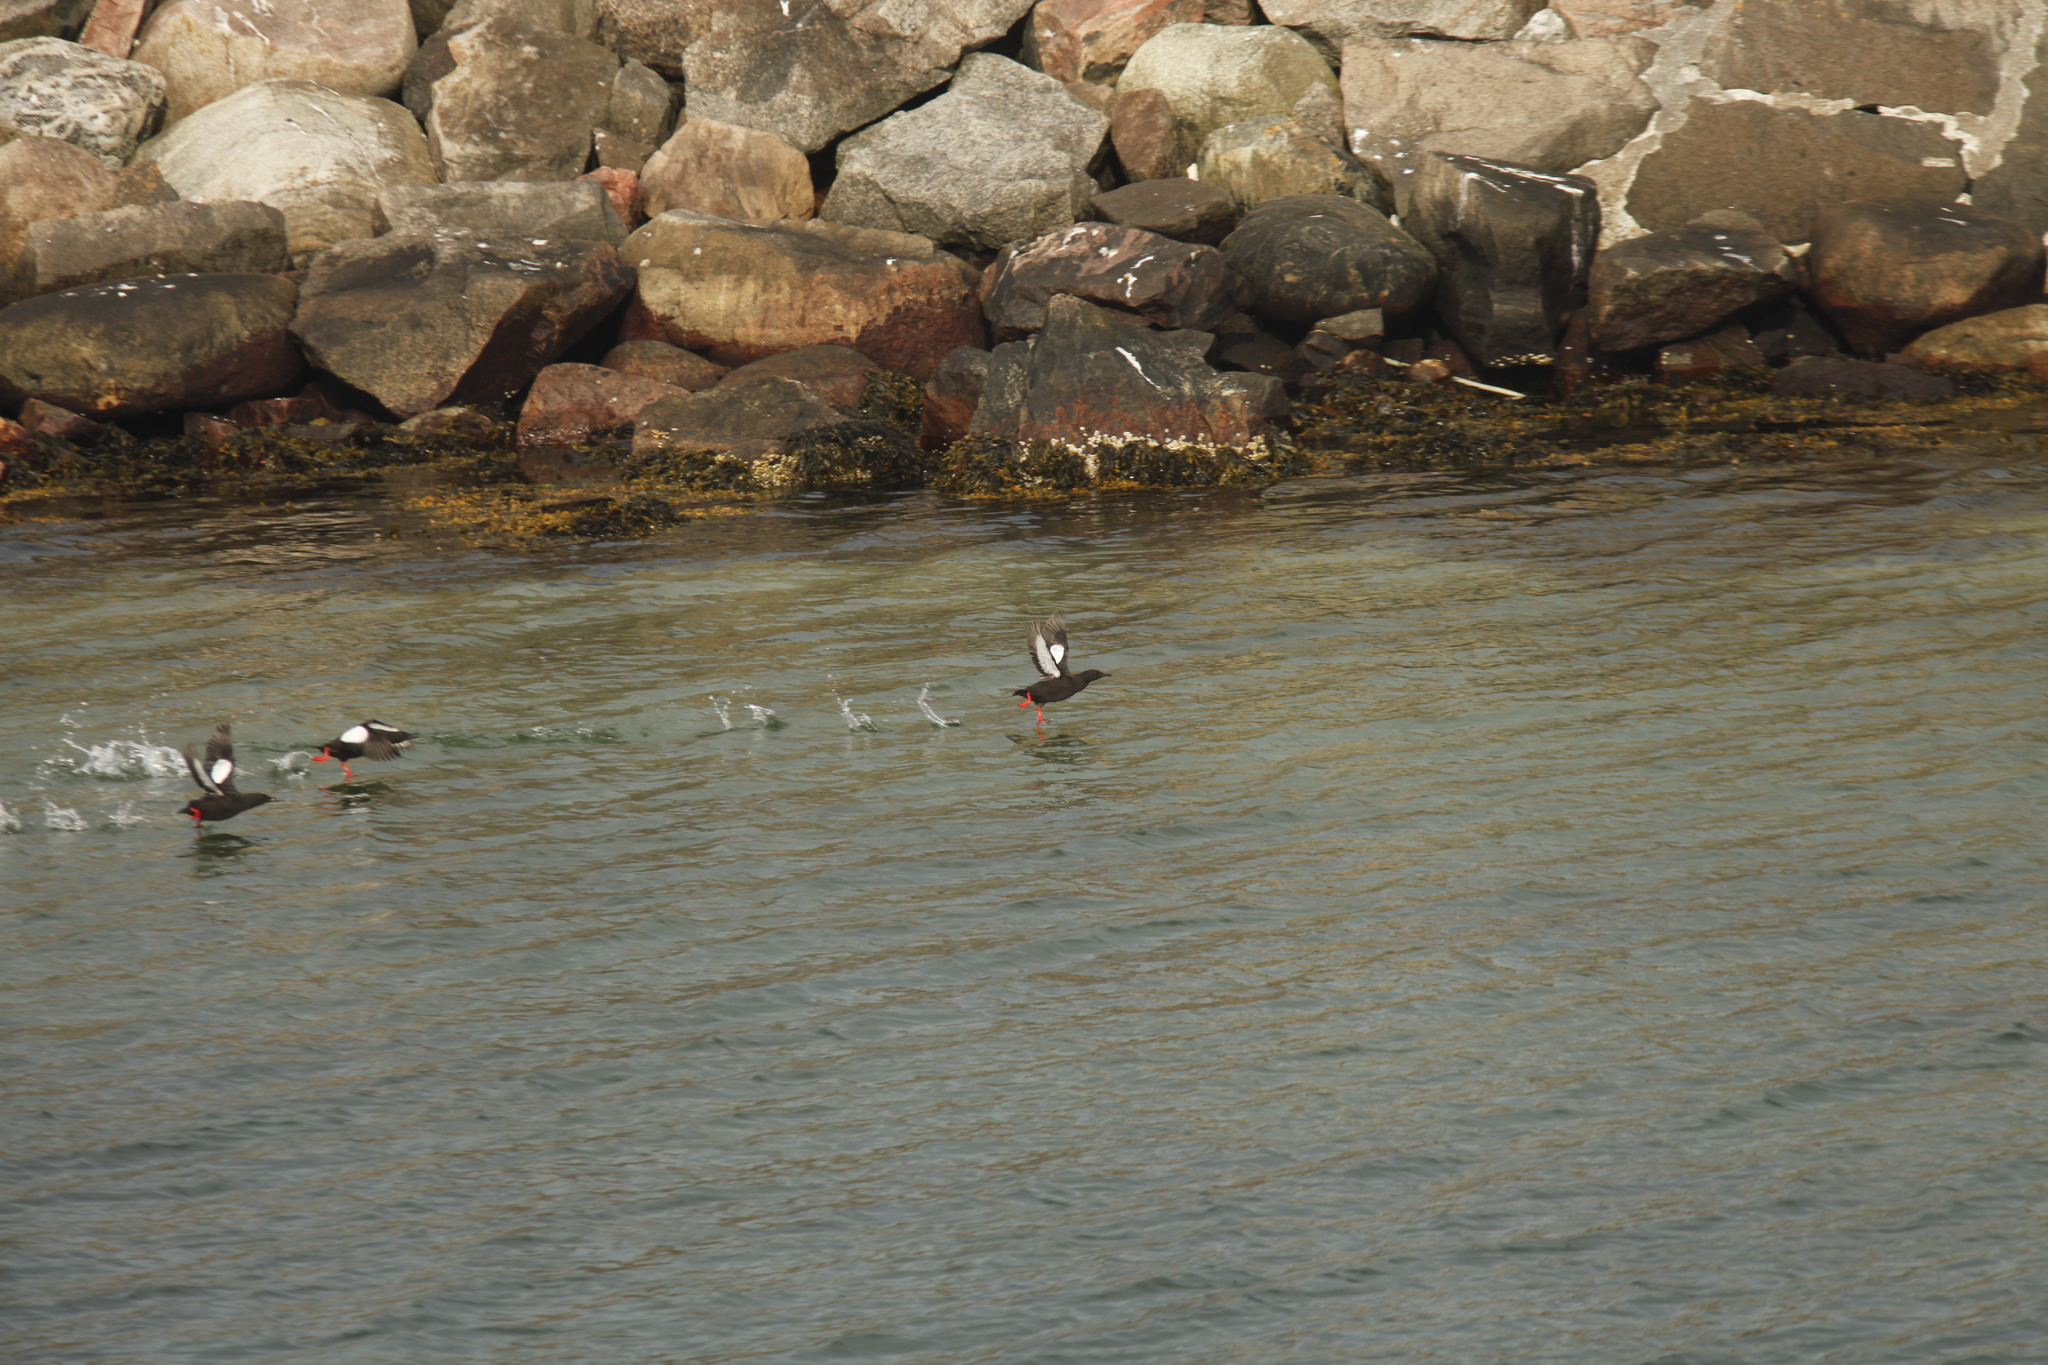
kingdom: Animalia
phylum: Chordata
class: Aves
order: Charadriiformes
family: Alcidae
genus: Cepphus
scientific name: Cepphus grylle
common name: Black guillemot
